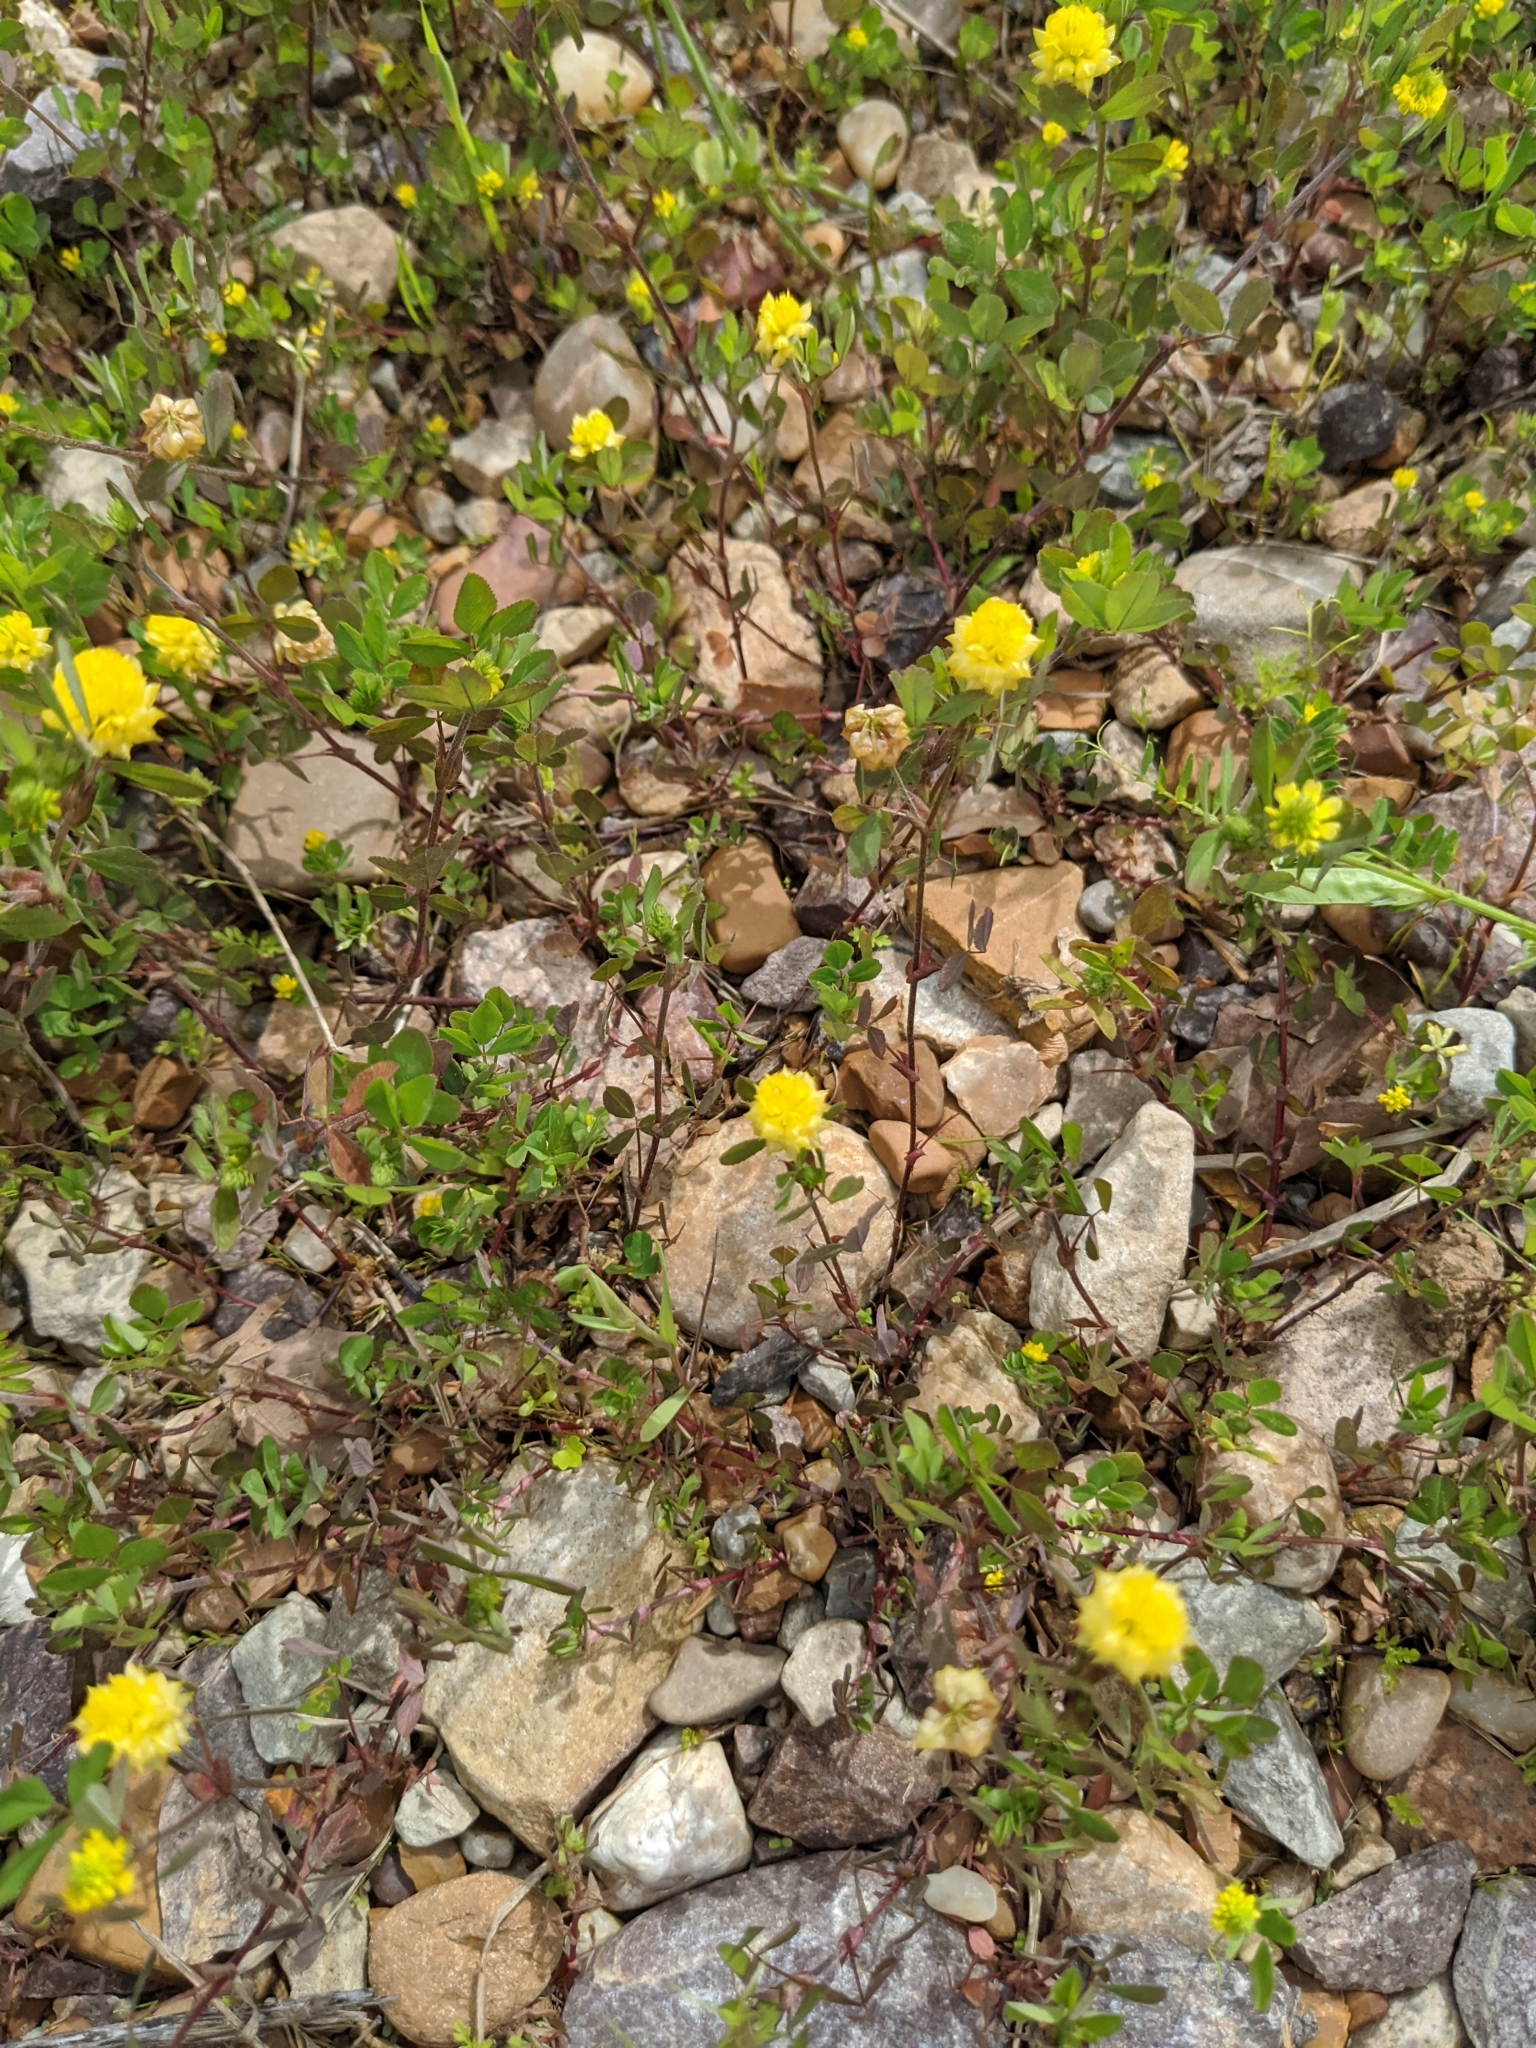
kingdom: Plantae
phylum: Tracheophyta
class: Magnoliopsida
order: Fabales
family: Fabaceae
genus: Trifolium
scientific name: Trifolium campestre
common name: Field clover
